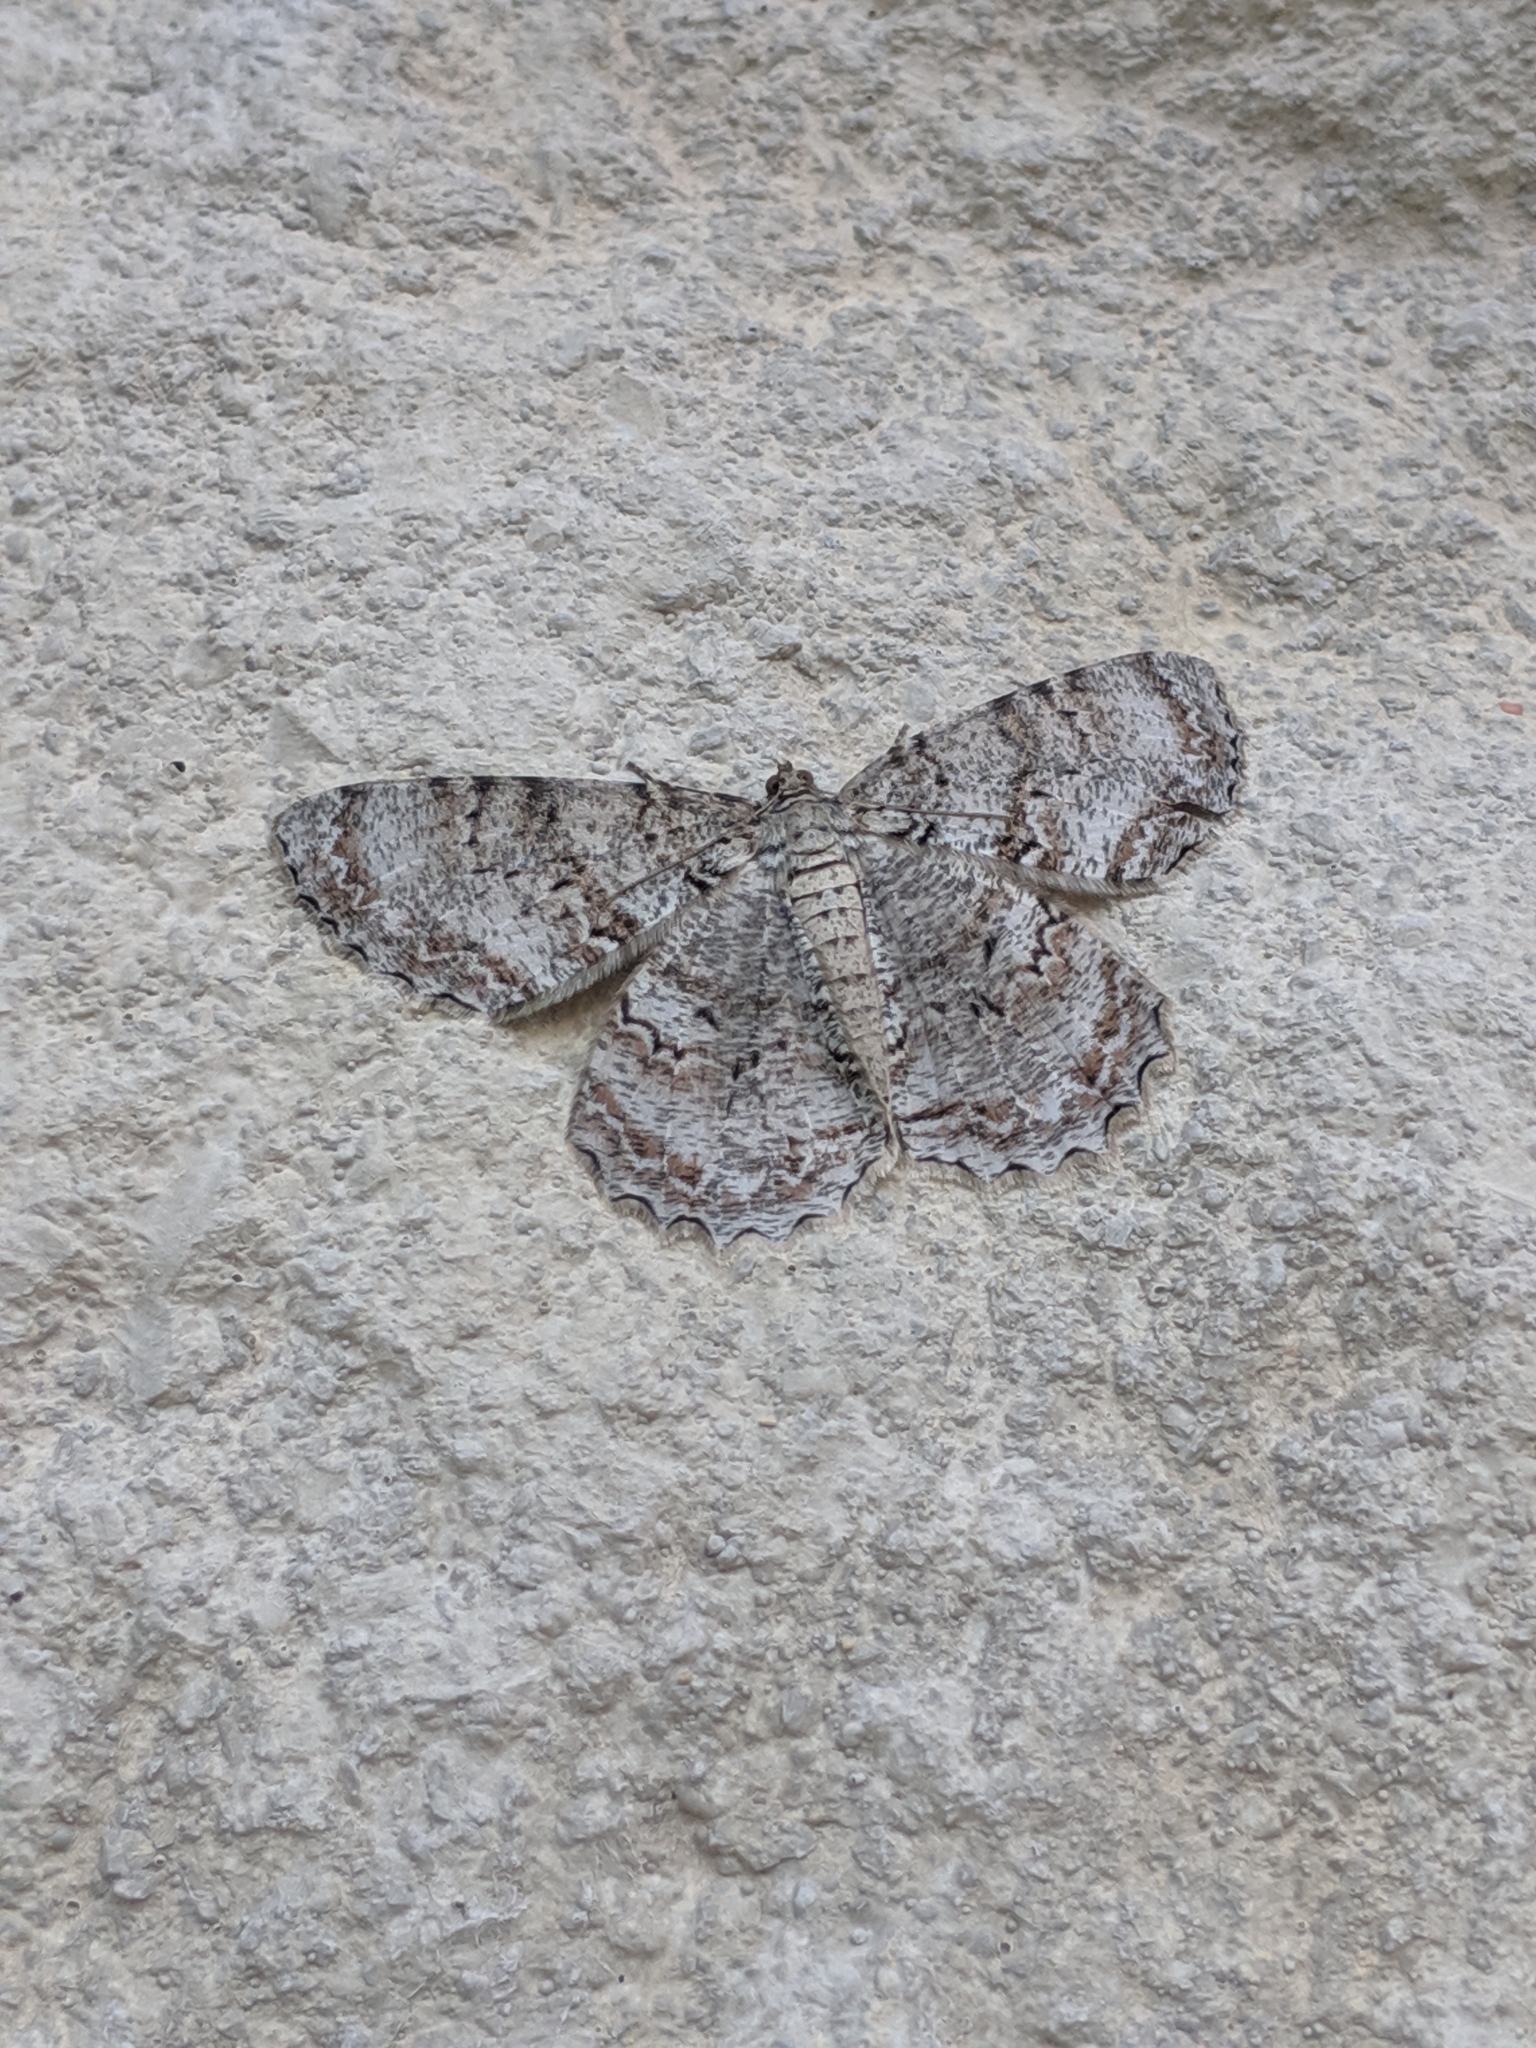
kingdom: Animalia
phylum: Arthropoda
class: Insecta
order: Lepidoptera
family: Geometridae
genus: Epimecis
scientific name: Epimecis hortaria
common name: Tulip-tree beauty
